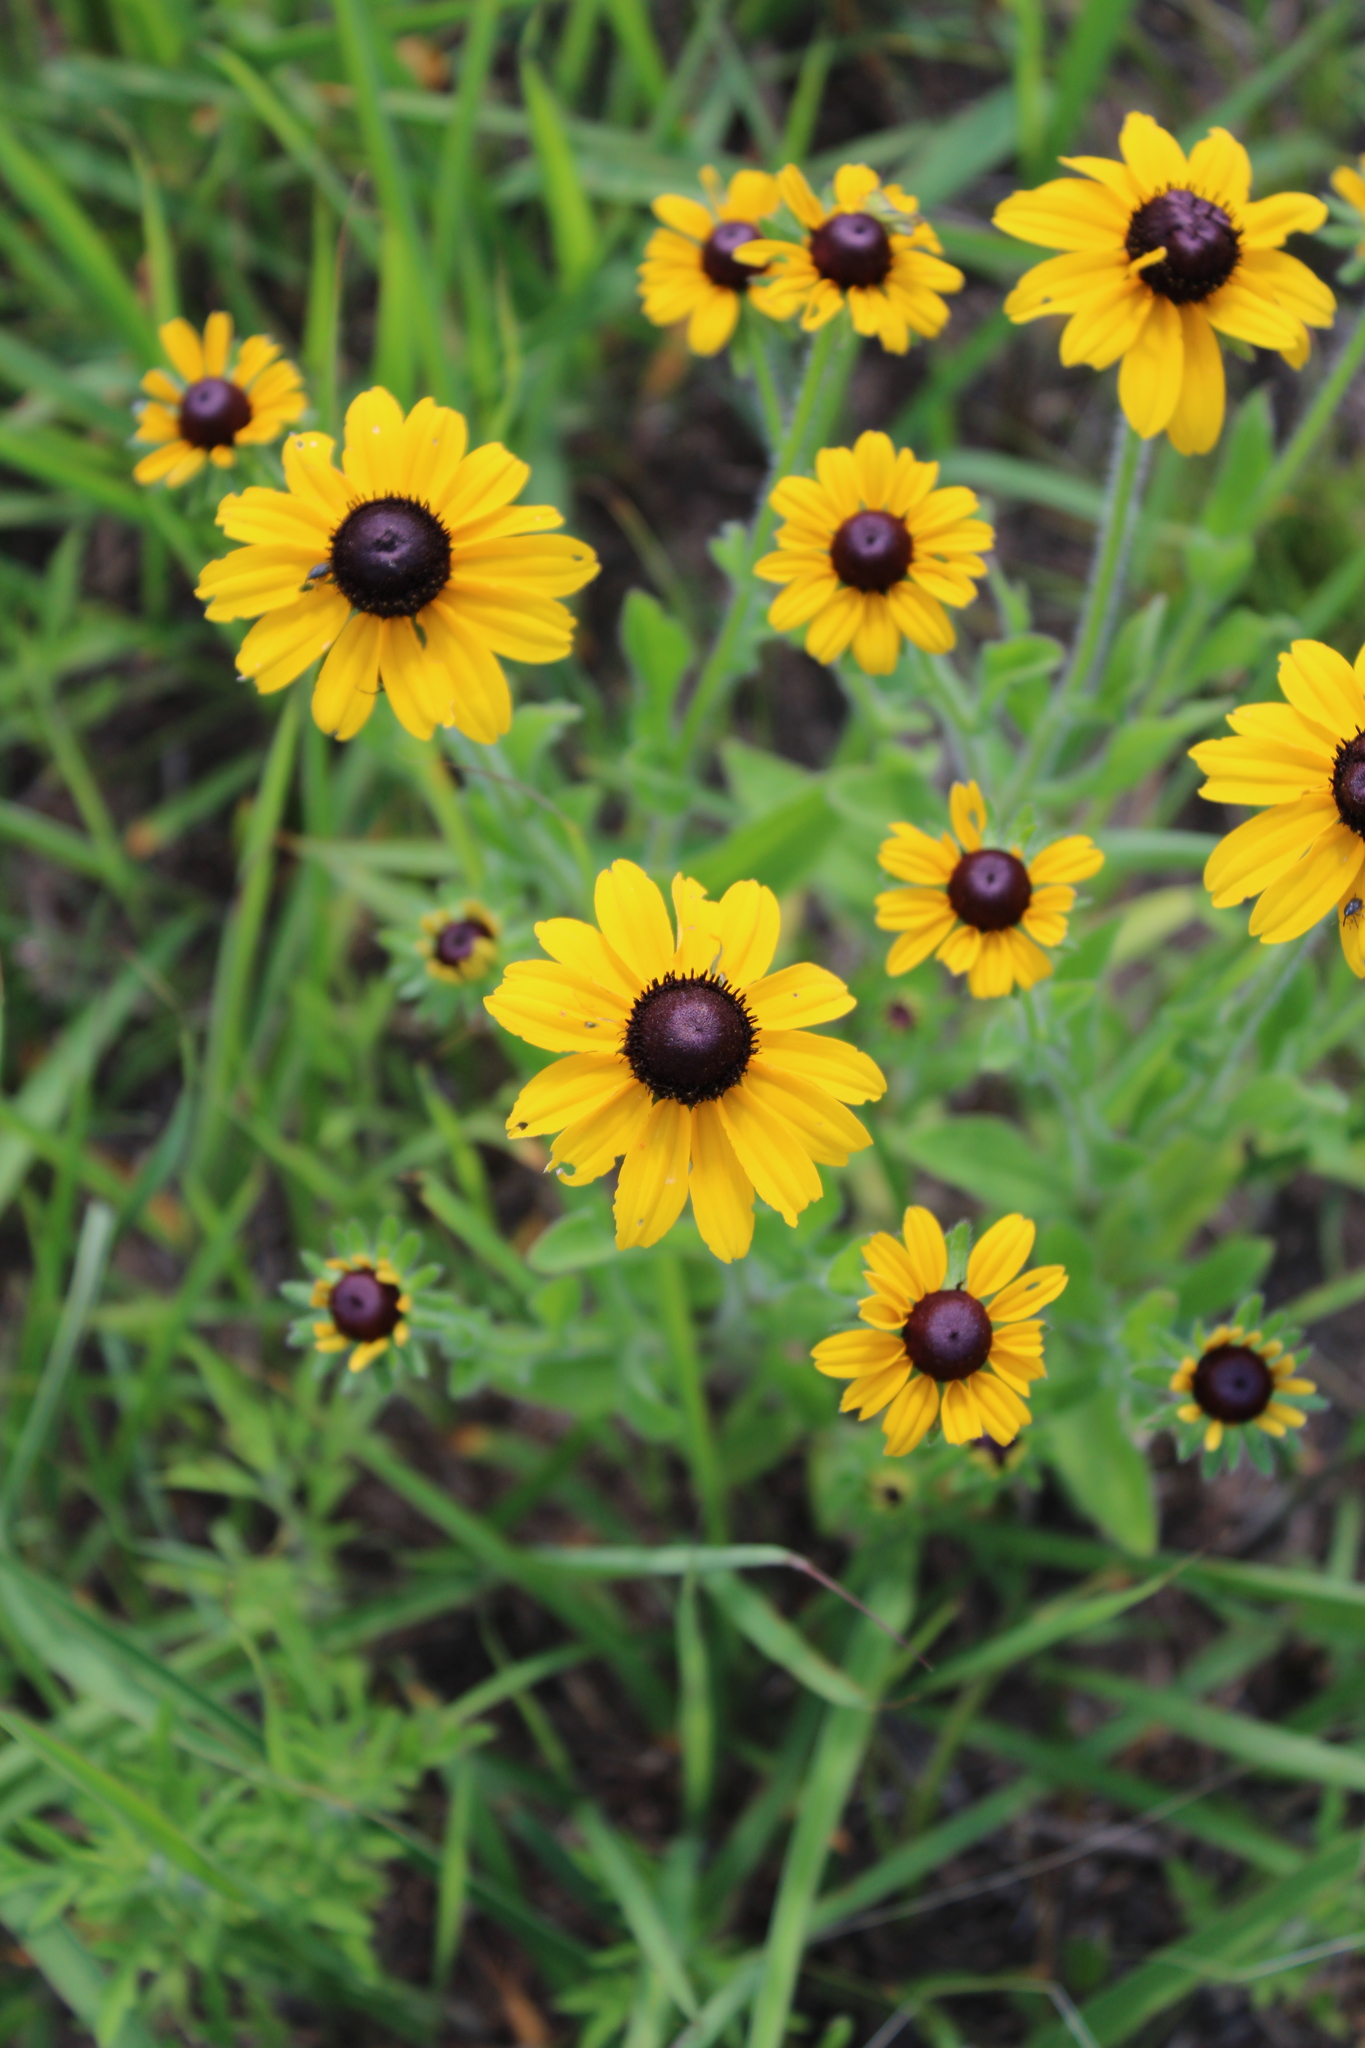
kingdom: Plantae
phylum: Tracheophyta
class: Magnoliopsida
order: Asterales
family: Asteraceae
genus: Rudbeckia
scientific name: Rudbeckia hirta
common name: Black-eyed-susan
